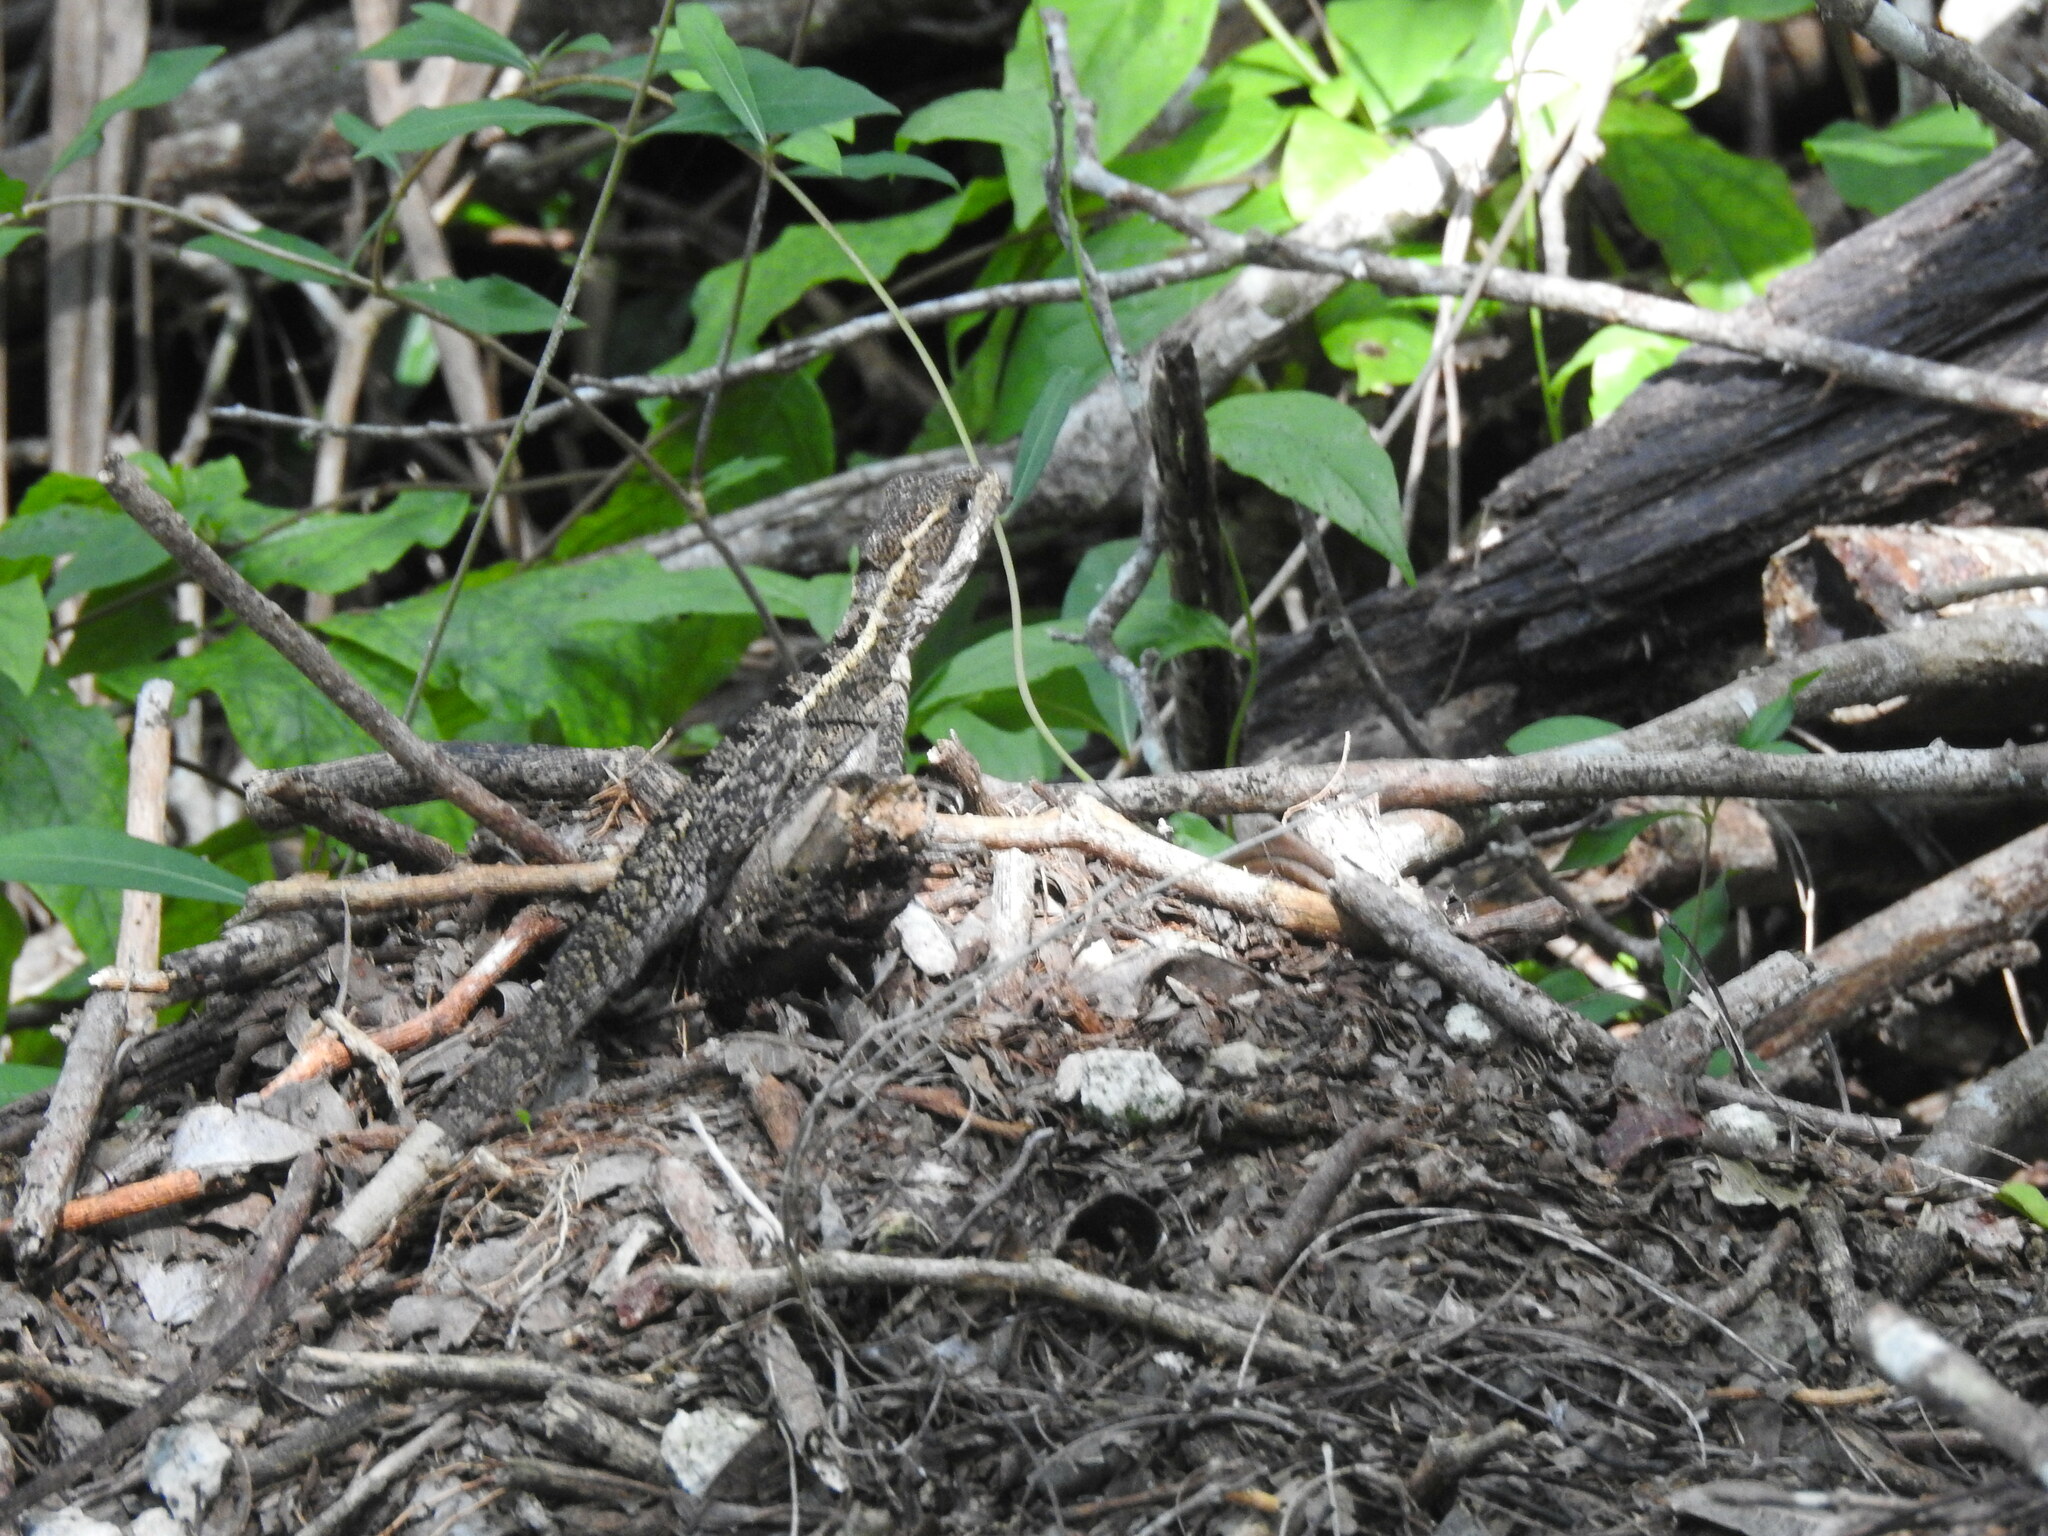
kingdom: Animalia
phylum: Chordata
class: Squamata
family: Corytophanidae
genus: Basiliscus
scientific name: Basiliscus vittatus
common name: Brown basilisk
